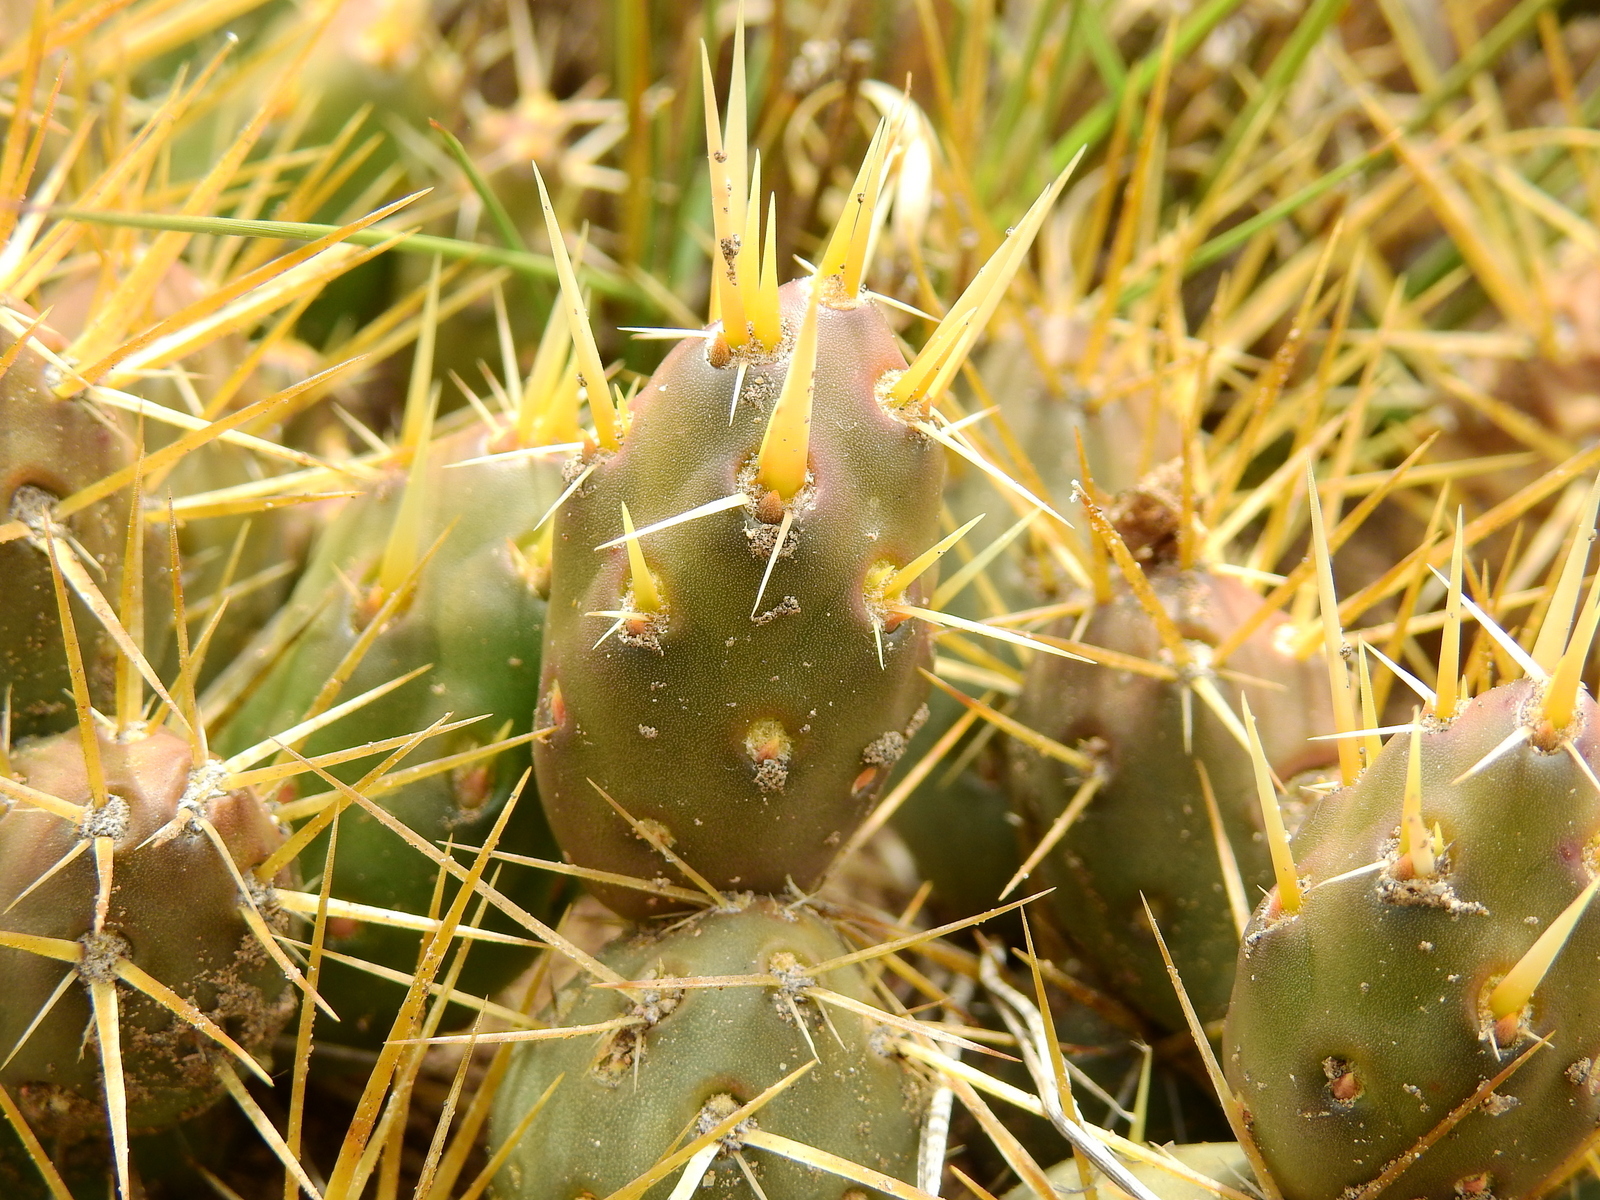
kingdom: Plantae
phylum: Tracheophyta
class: Magnoliopsida
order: Caryophyllales
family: Cactaceae
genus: Maihueniopsis
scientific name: Maihueniopsis glomerata
